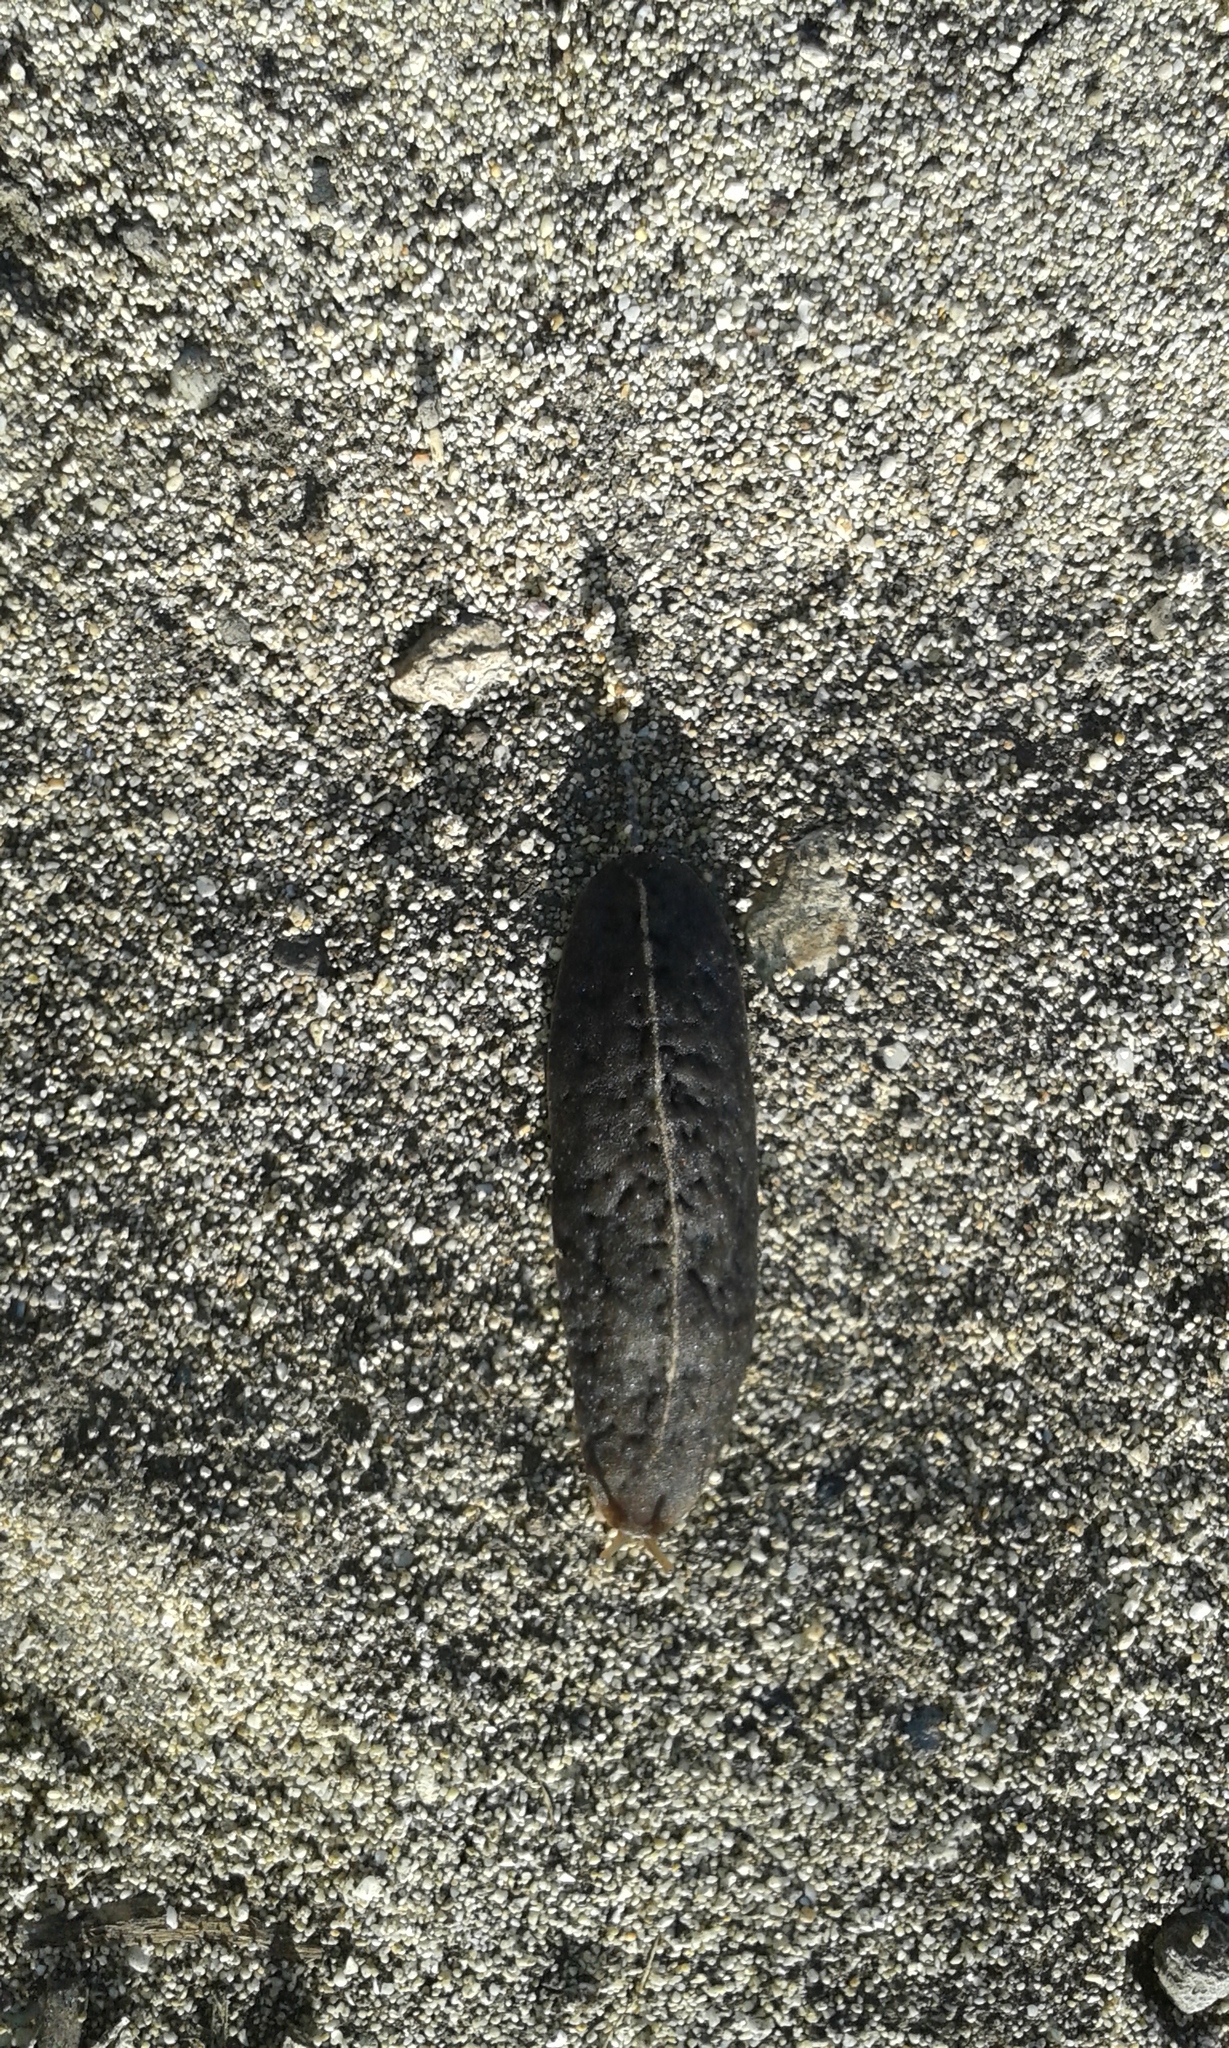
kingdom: Animalia
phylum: Mollusca
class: Gastropoda
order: Systellommatophora
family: Veronicellidae
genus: Laevicaulis
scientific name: Laevicaulis alte
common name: Tropical leatherleaf
